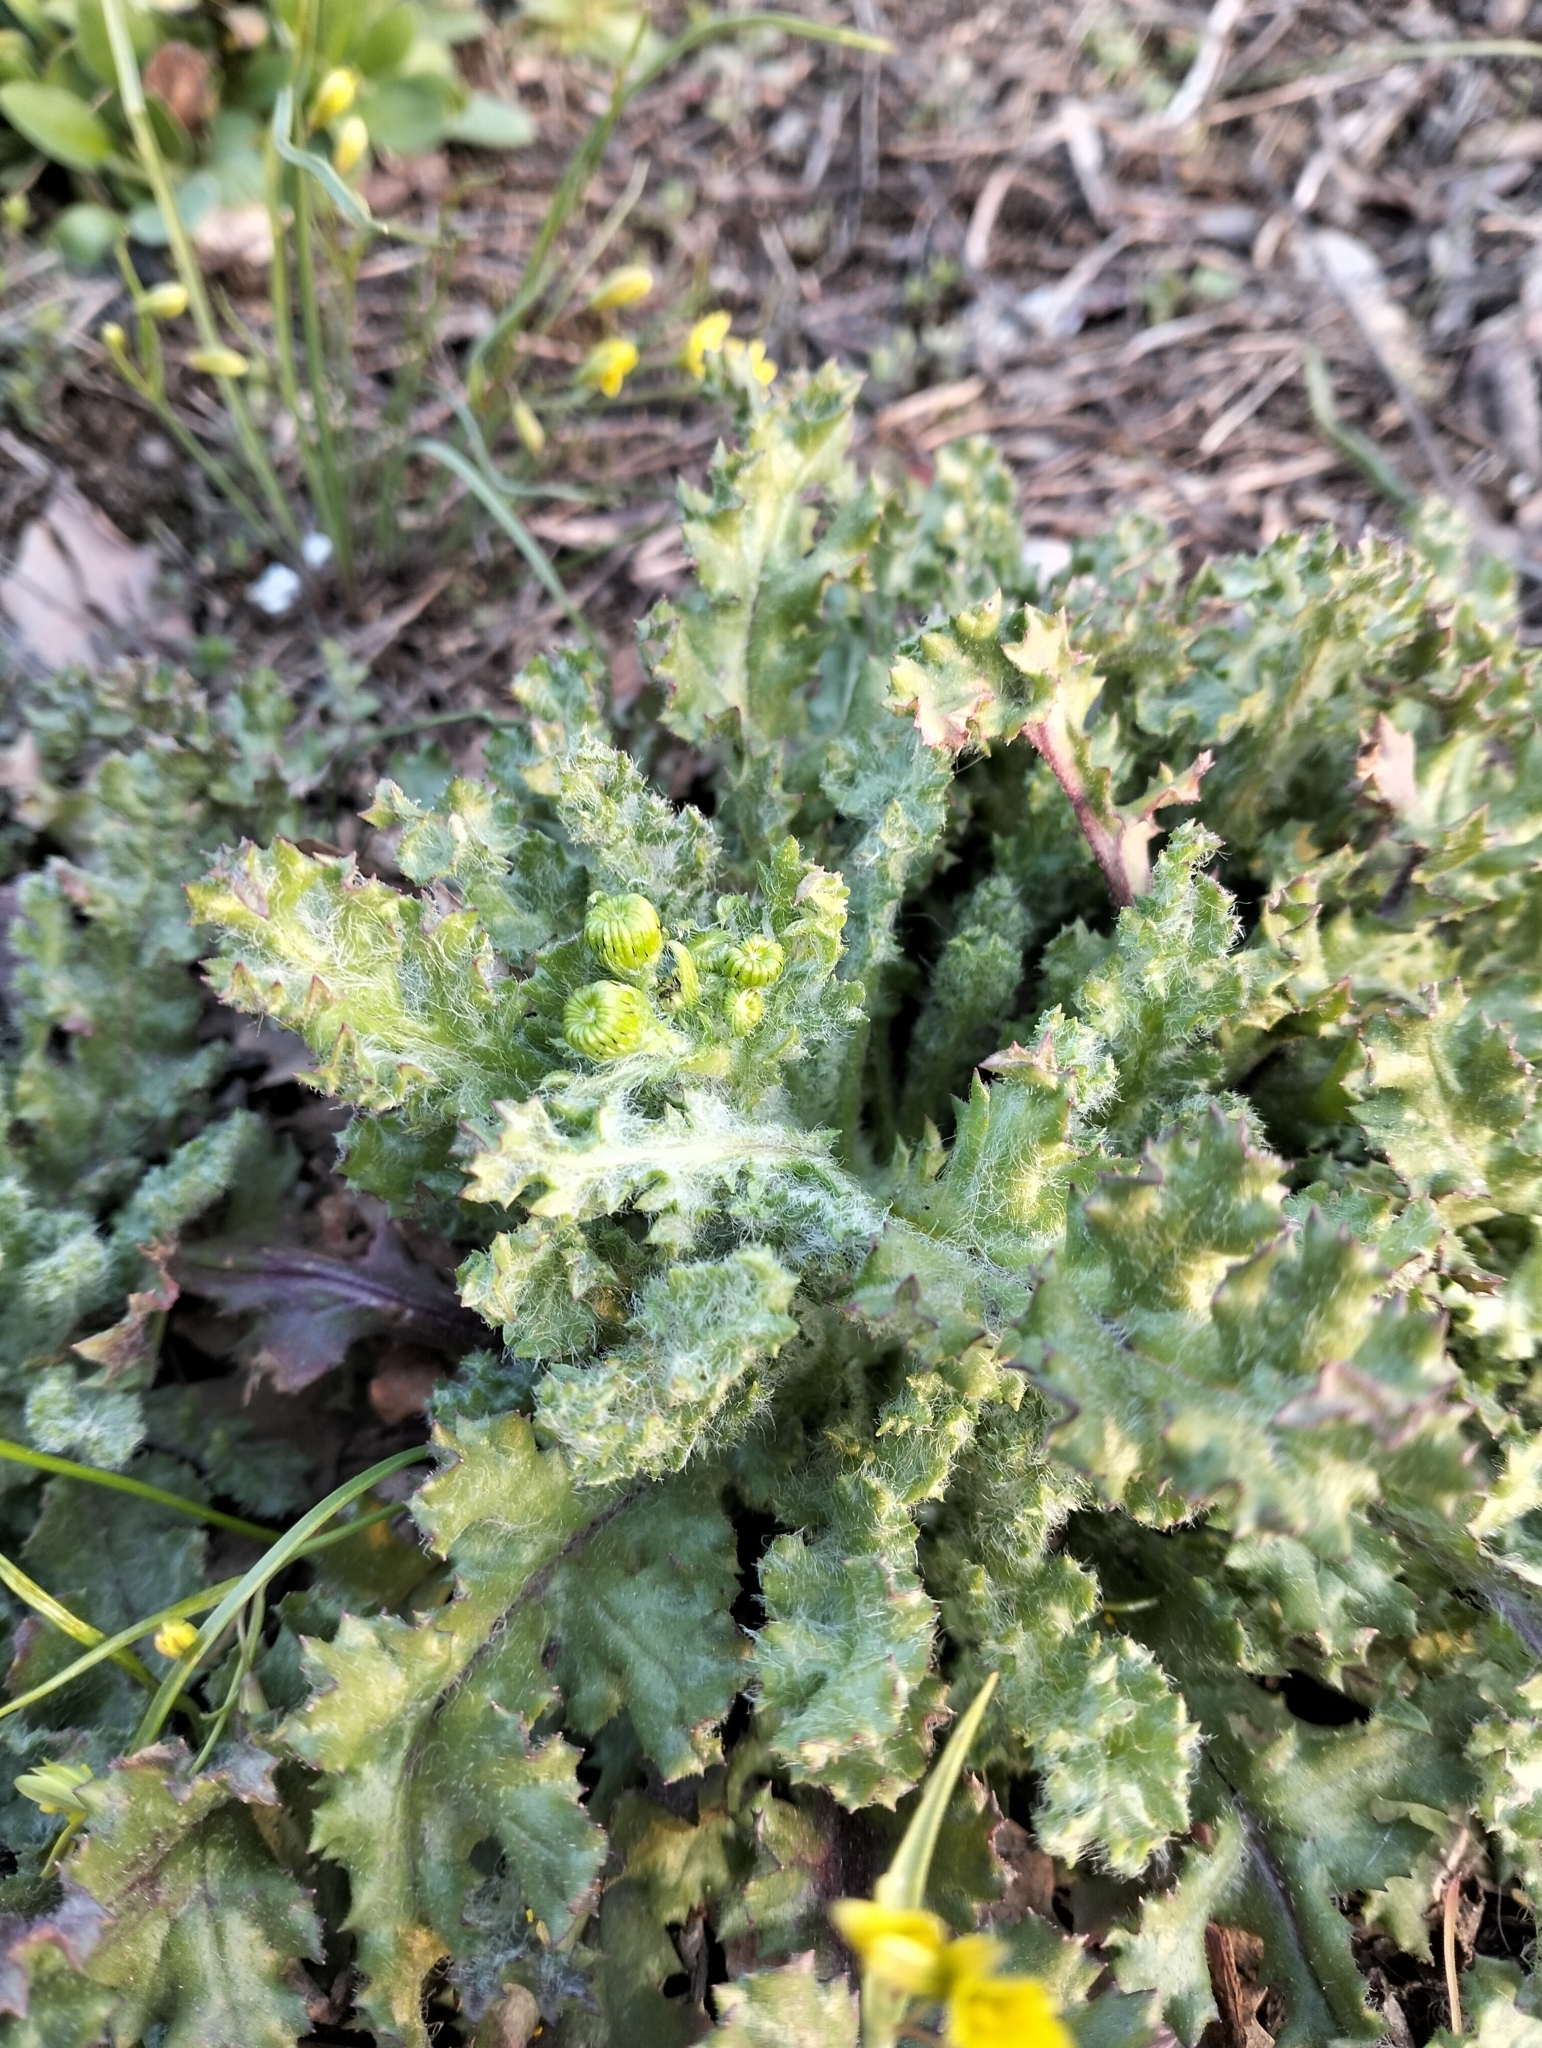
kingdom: Plantae
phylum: Tracheophyta
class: Magnoliopsida
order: Asterales
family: Asteraceae
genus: Senecio
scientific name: Senecio vernalis
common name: Eastern groundsel
